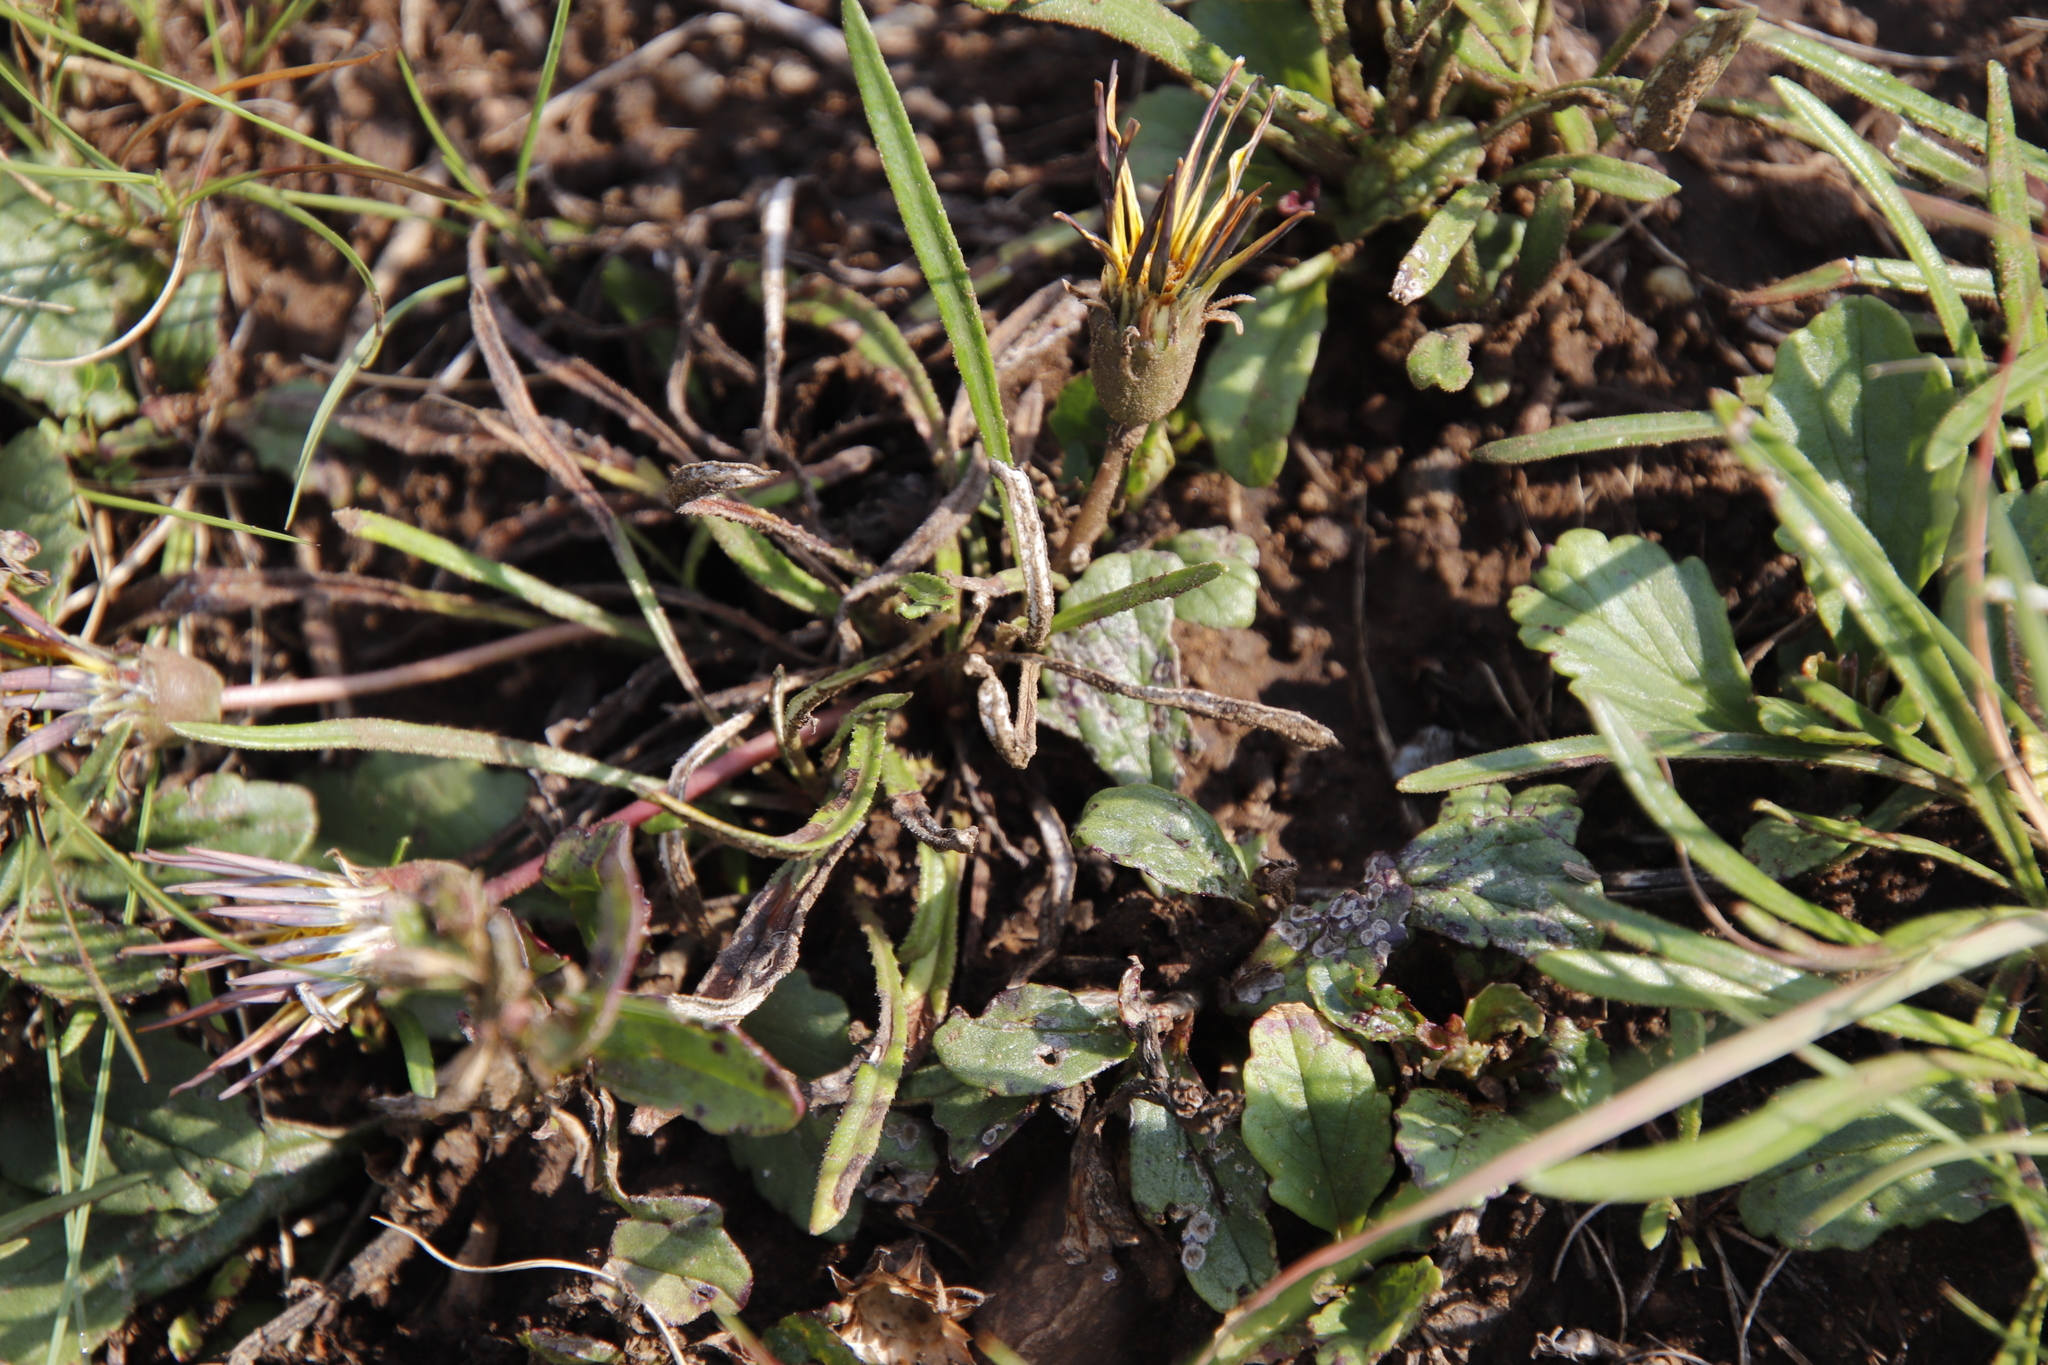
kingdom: Plantae
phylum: Tracheophyta
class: Magnoliopsida
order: Asterales
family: Asteraceae
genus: Gazania
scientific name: Gazania krebsiana
